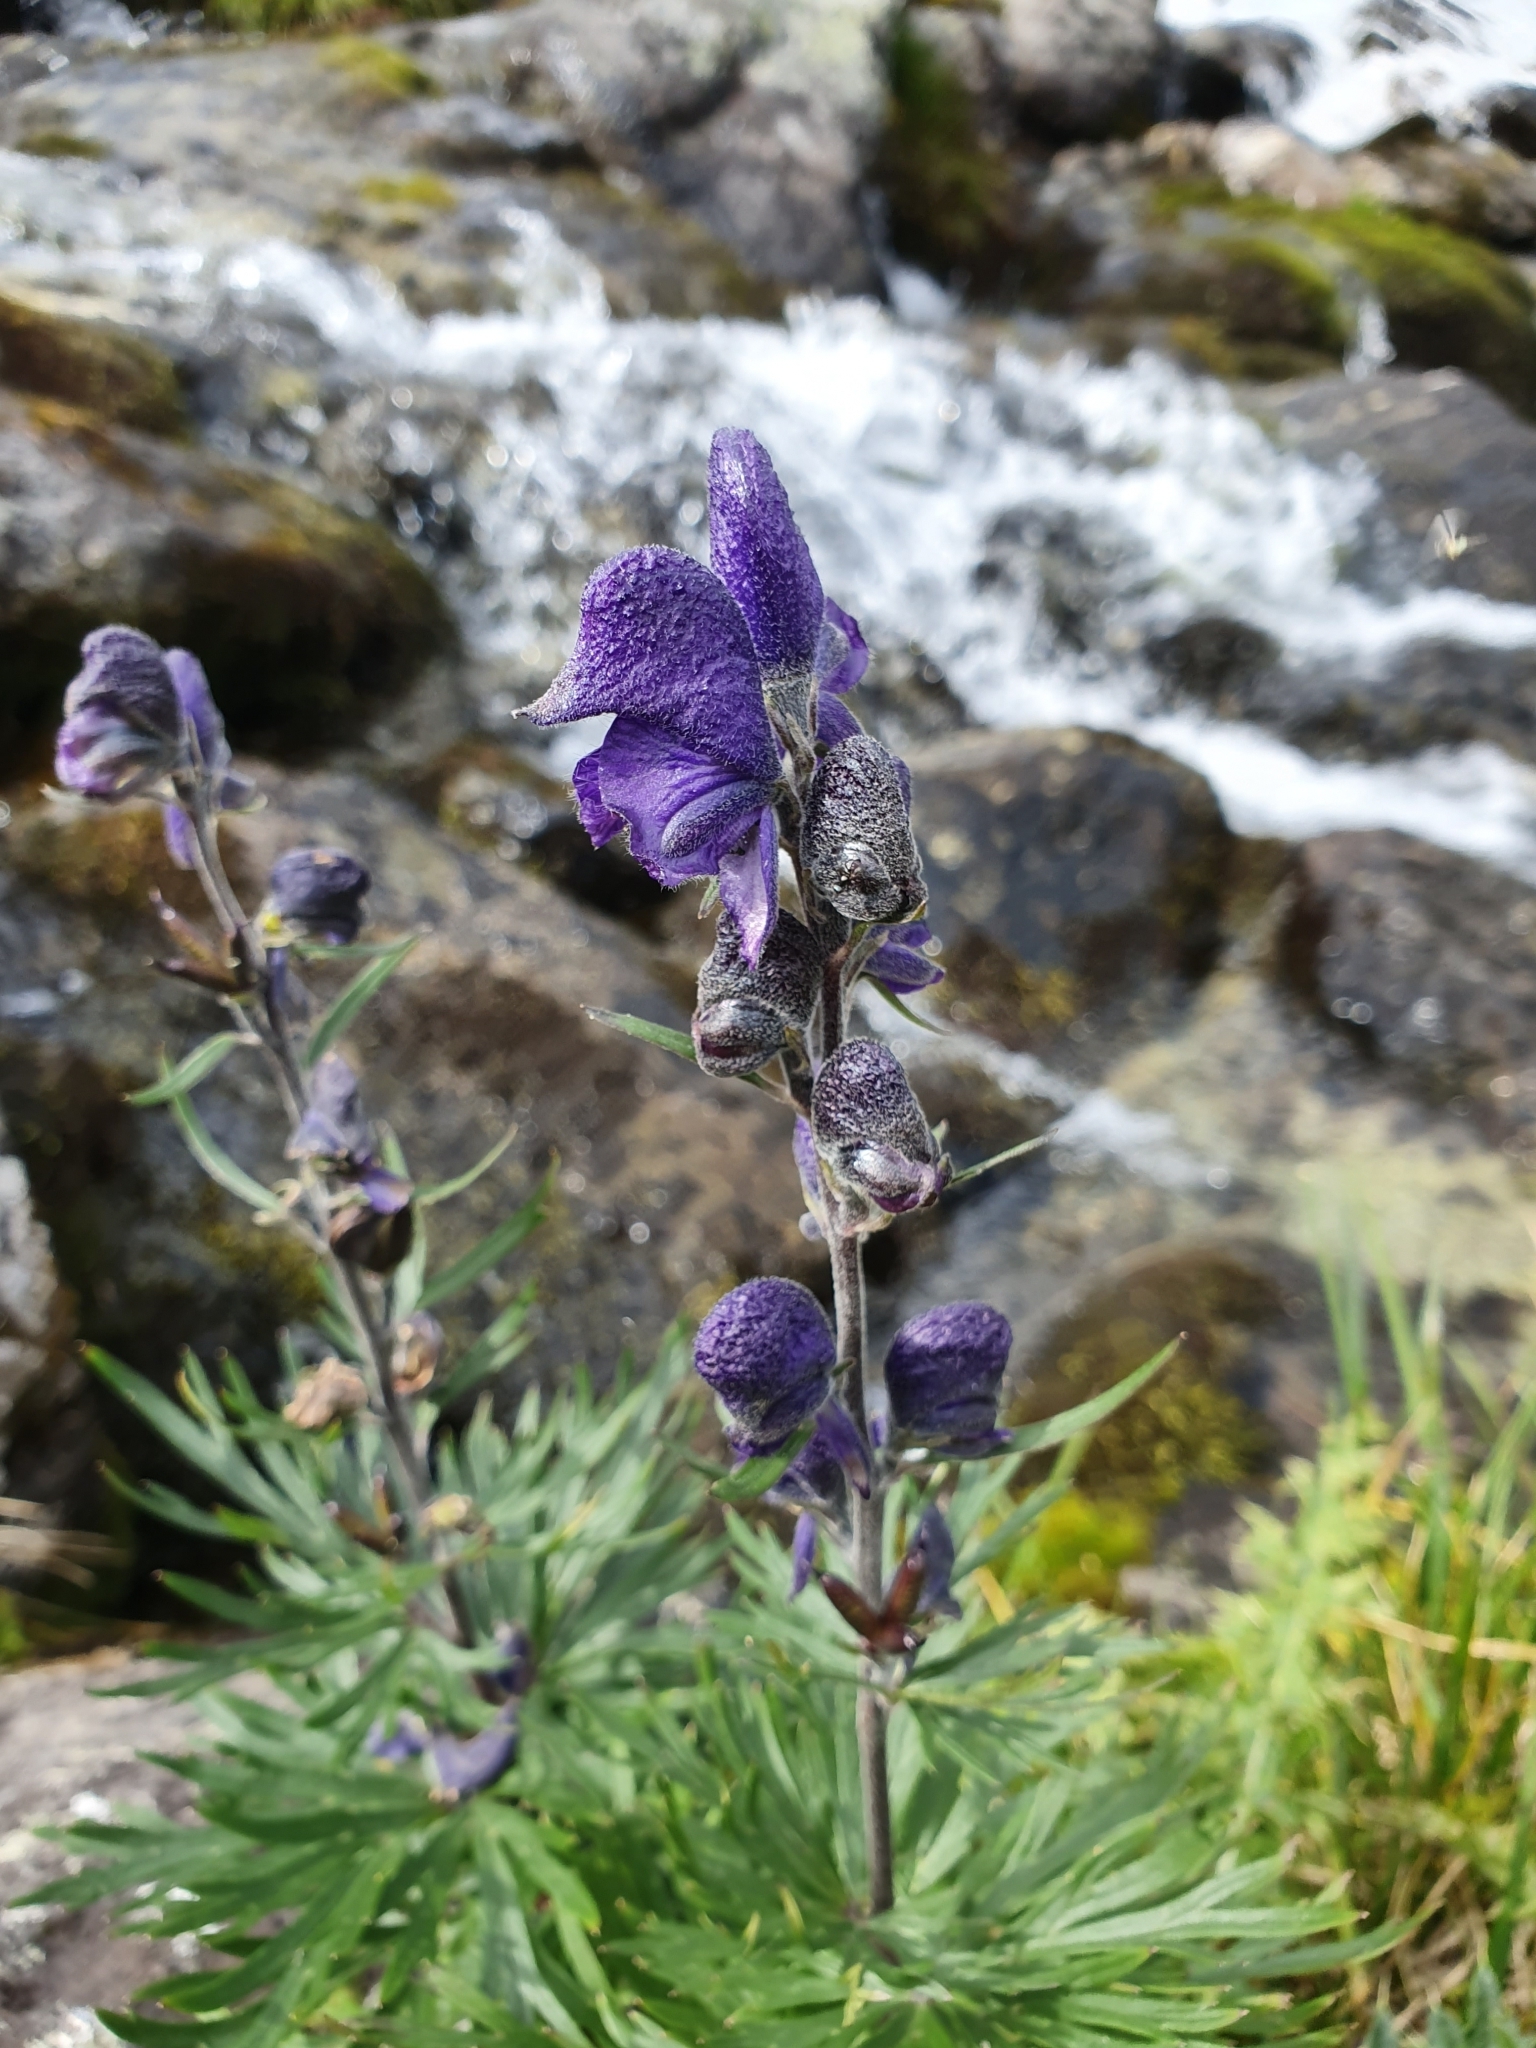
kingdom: Plantae
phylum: Tracheophyta
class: Magnoliopsida
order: Ranunculales
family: Ranunculaceae
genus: Aconitum
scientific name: Aconitum napellus
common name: Garden monkshood
